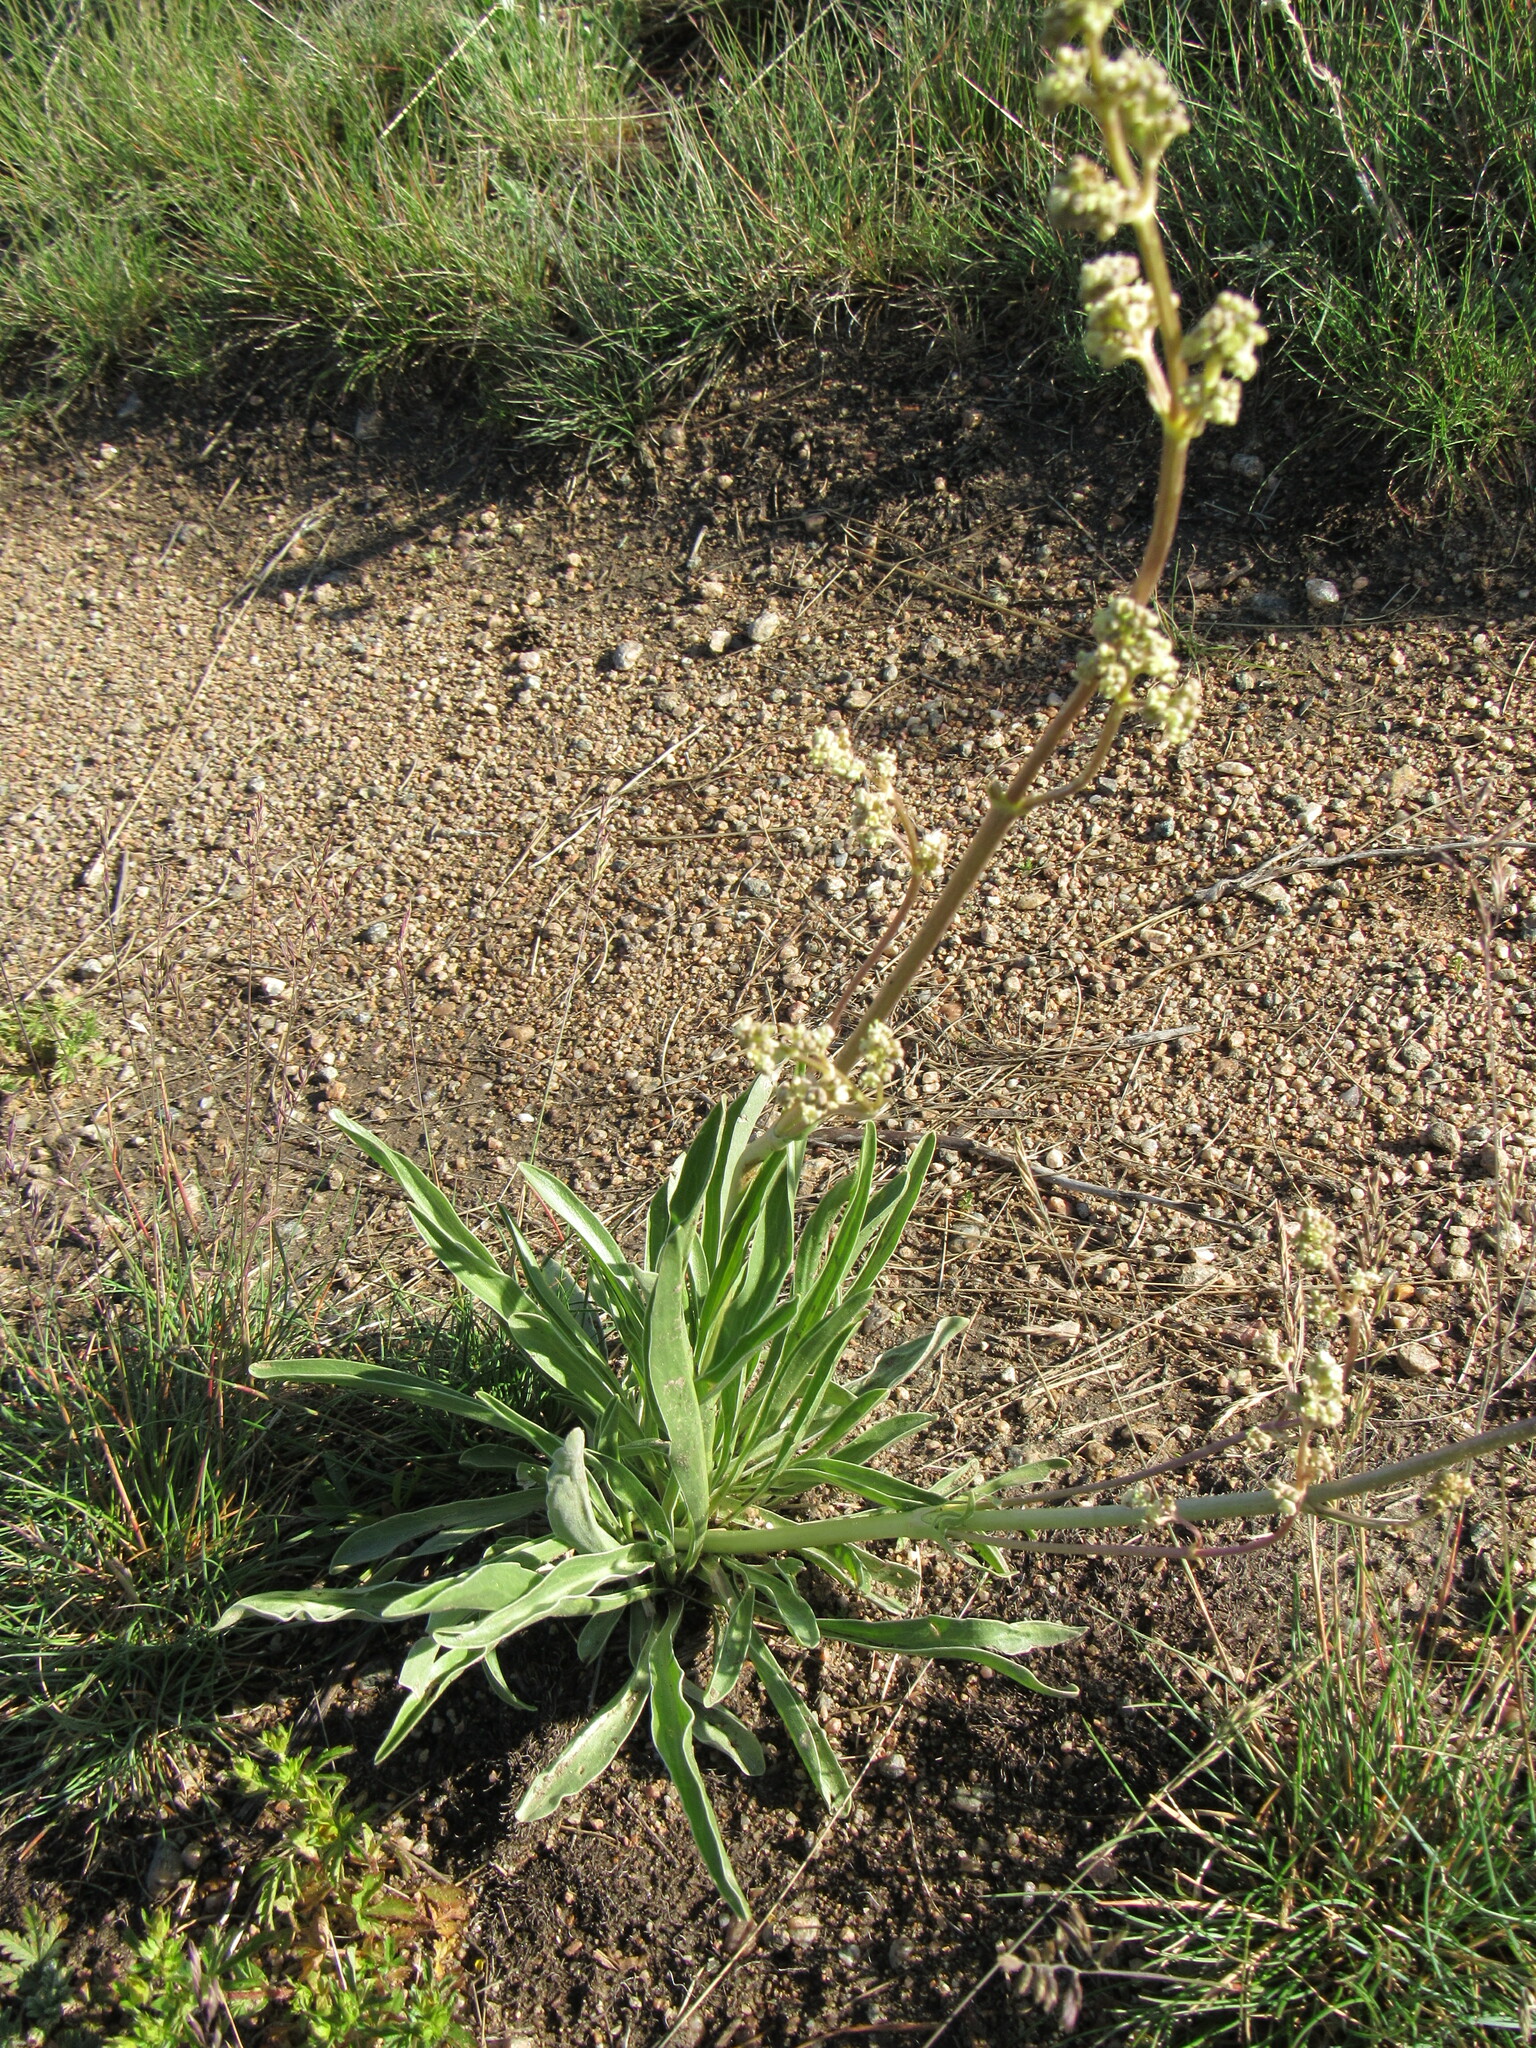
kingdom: Plantae
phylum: Tracheophyta
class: Magnoliopsida
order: Dipsacales
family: Caprifoliaceae
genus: Valeriana
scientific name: Valeriana edulis
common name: Taproot valerian
